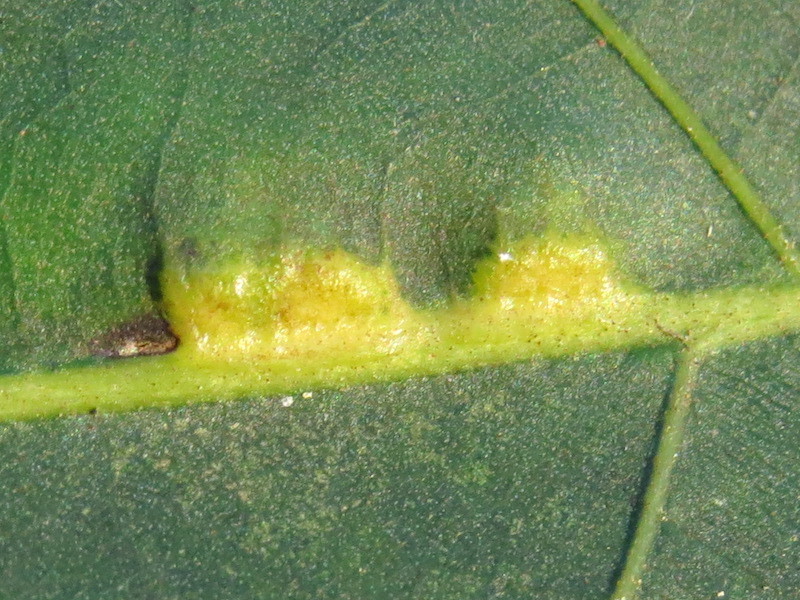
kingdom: Animalia
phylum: Arthropoda
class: Insecta
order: Diptera
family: Cecidomyiidae
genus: Caryomyia
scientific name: Caryomyia aggregata
